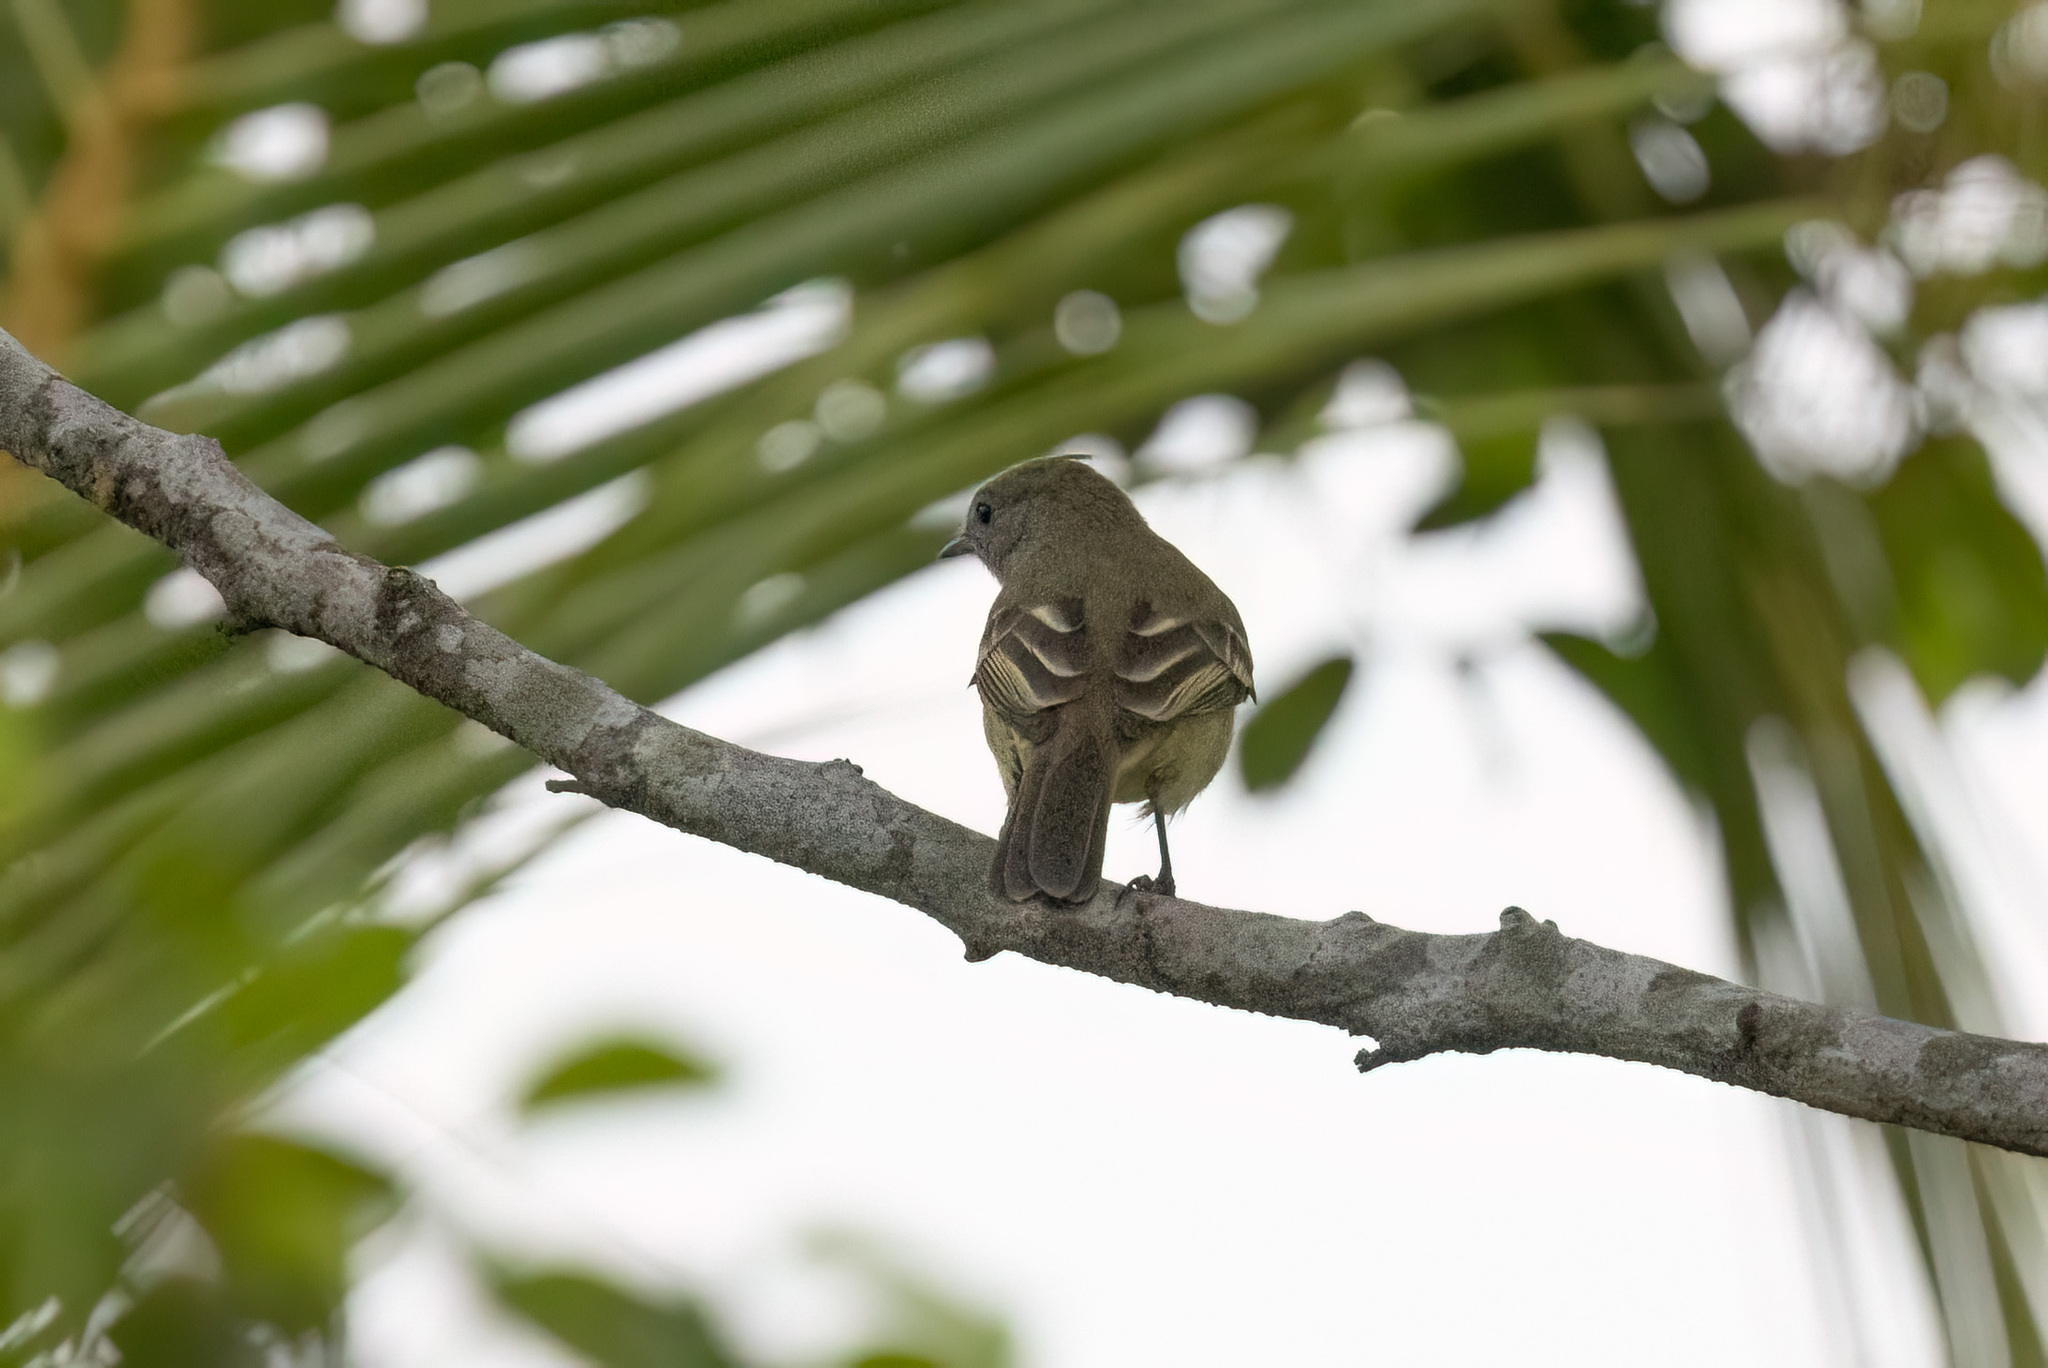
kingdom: Animalia
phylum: Chordata
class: Aves
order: Passeriformes
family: Tyrannidae
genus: Elaenia
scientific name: Elaenia flavogaster
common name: Yellow-bellied elaenia
